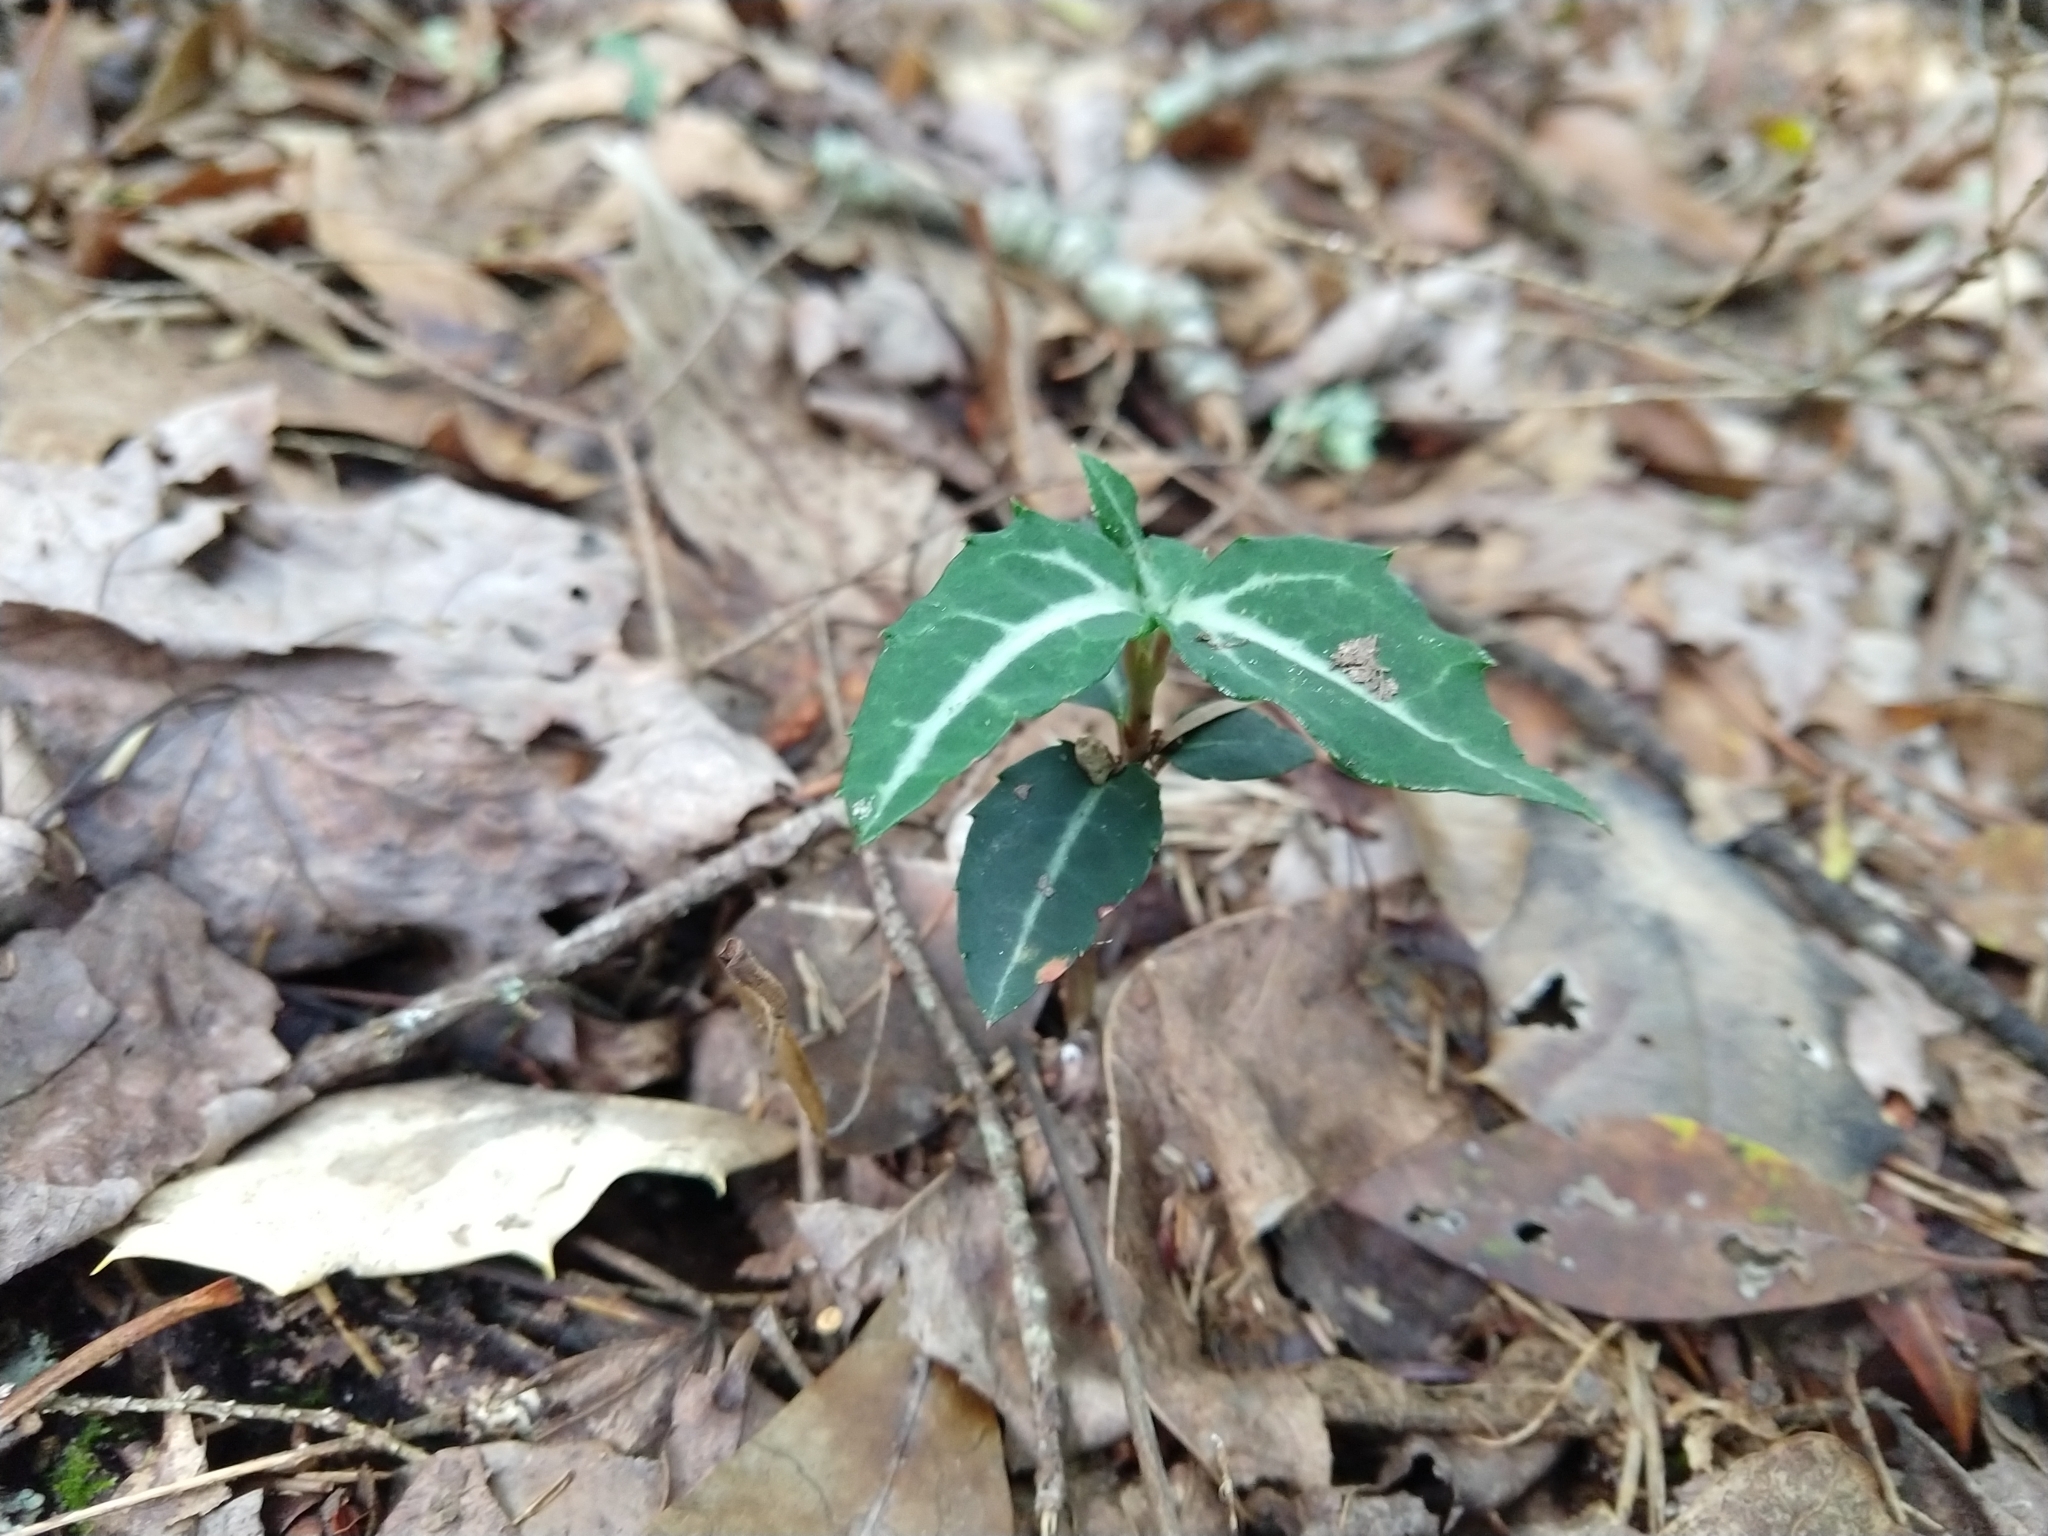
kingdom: Plantae
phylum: Tracheophyta
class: Magnoliopsida
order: Ericales
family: Ericaceae
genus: Chimaphila
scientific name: Chimaphila maculata
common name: Spotted pipsissewa
